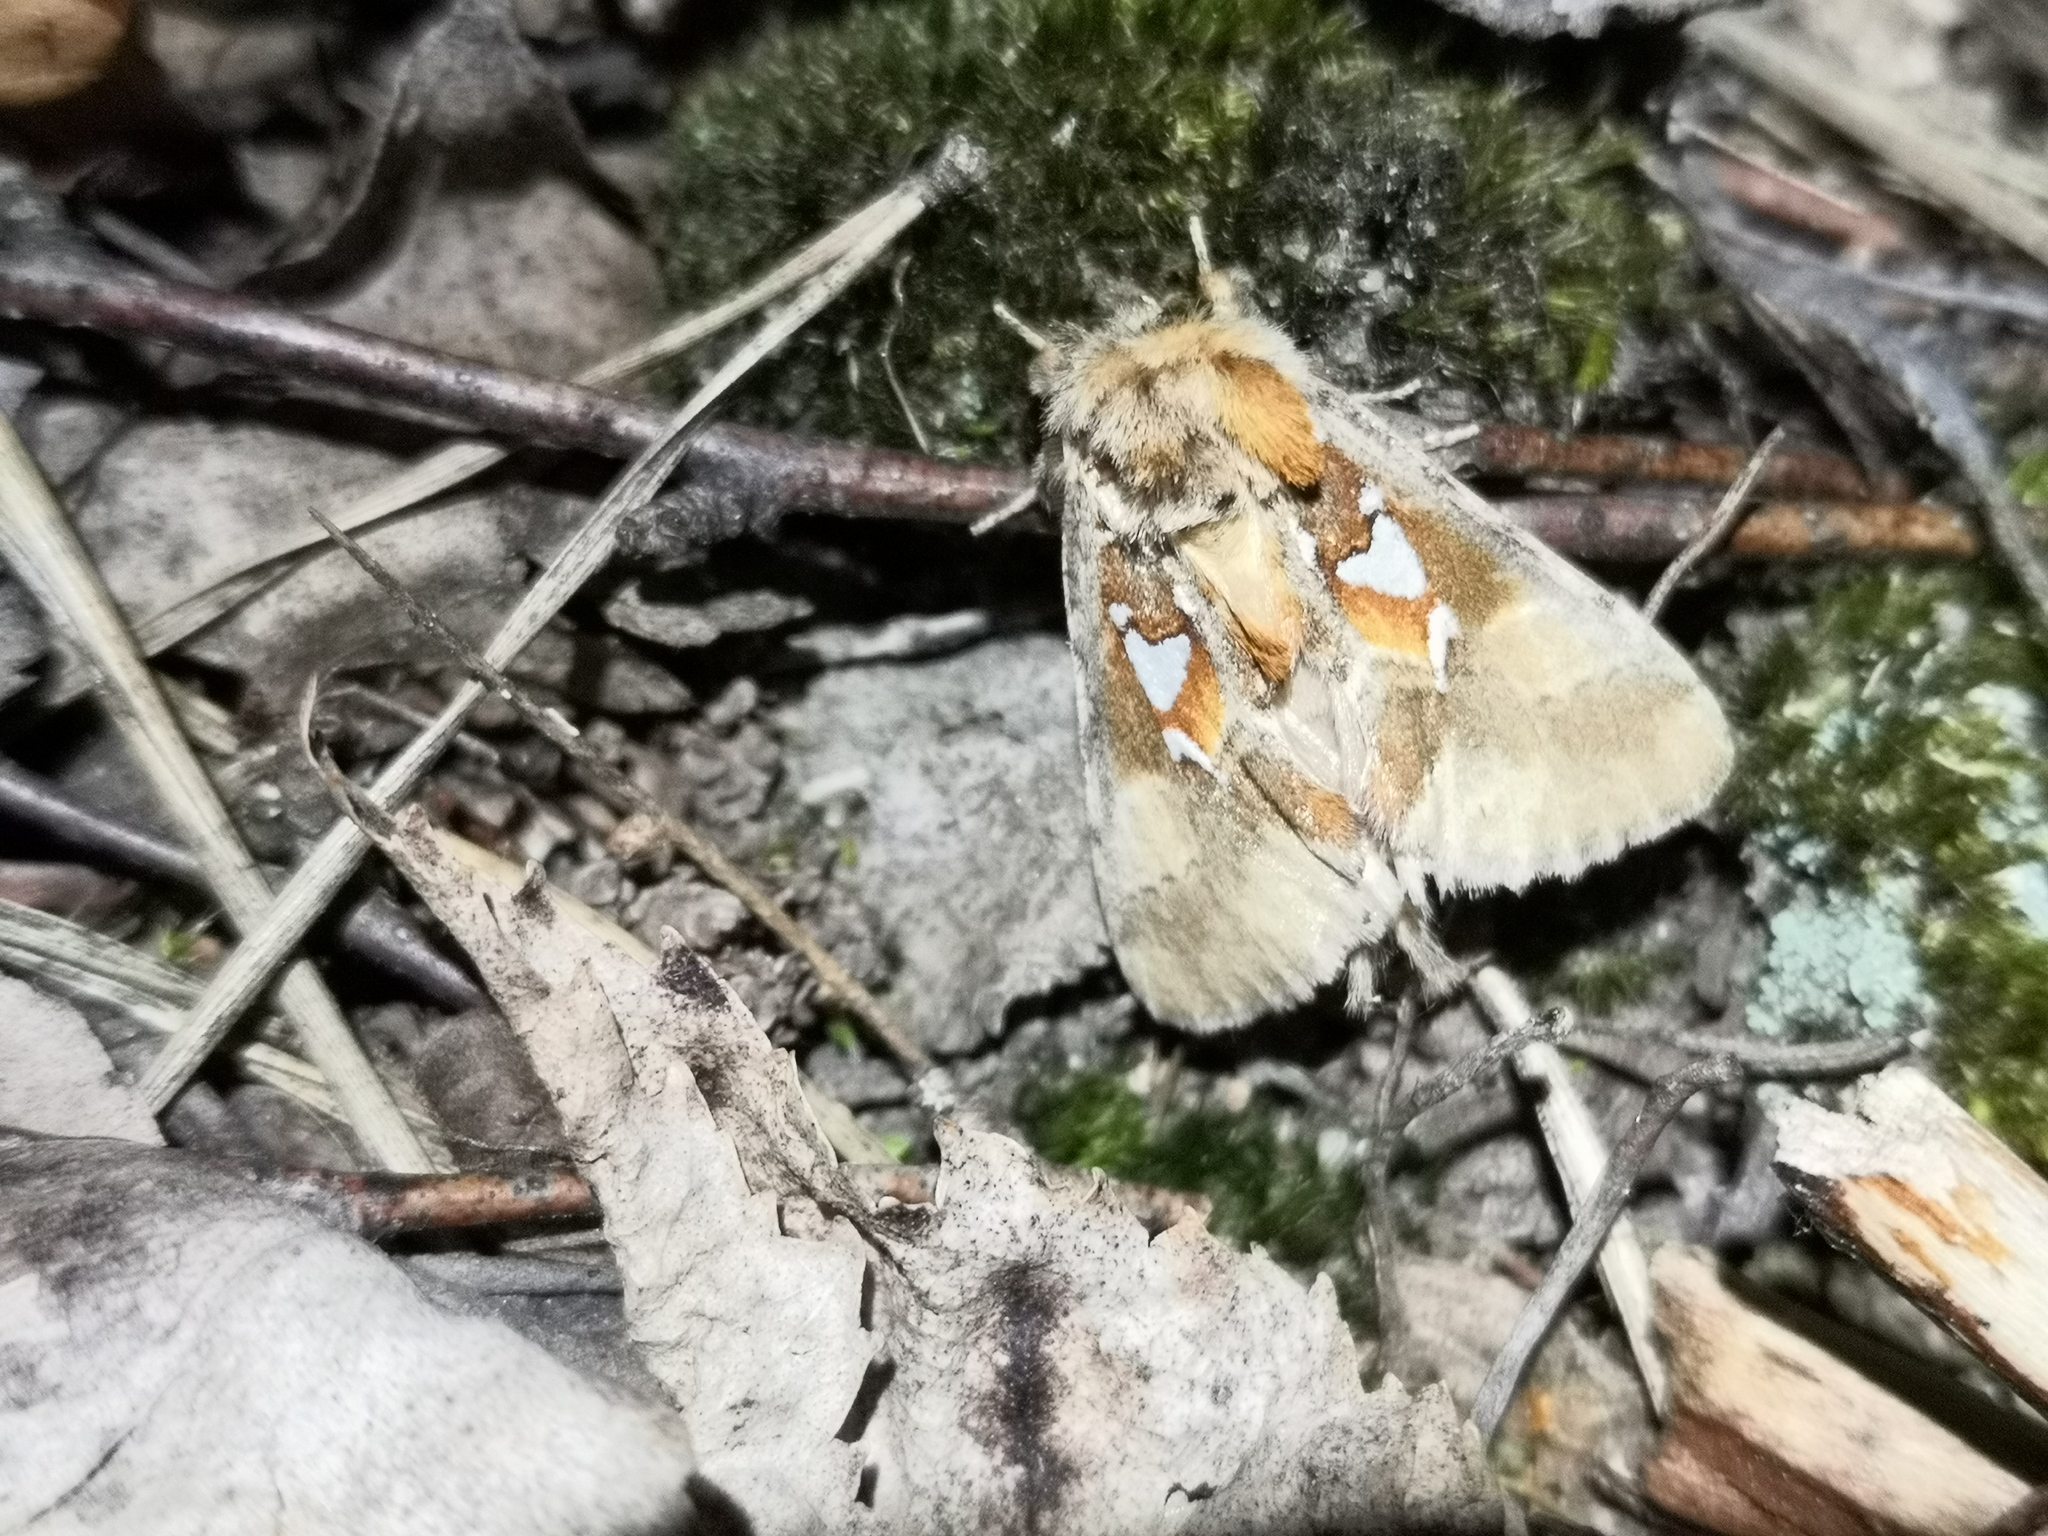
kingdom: Animalia
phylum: Arthropoda
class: Insecta
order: Lepidoptera
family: Notodontidae
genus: Spatalia
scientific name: Spatalia argentina
